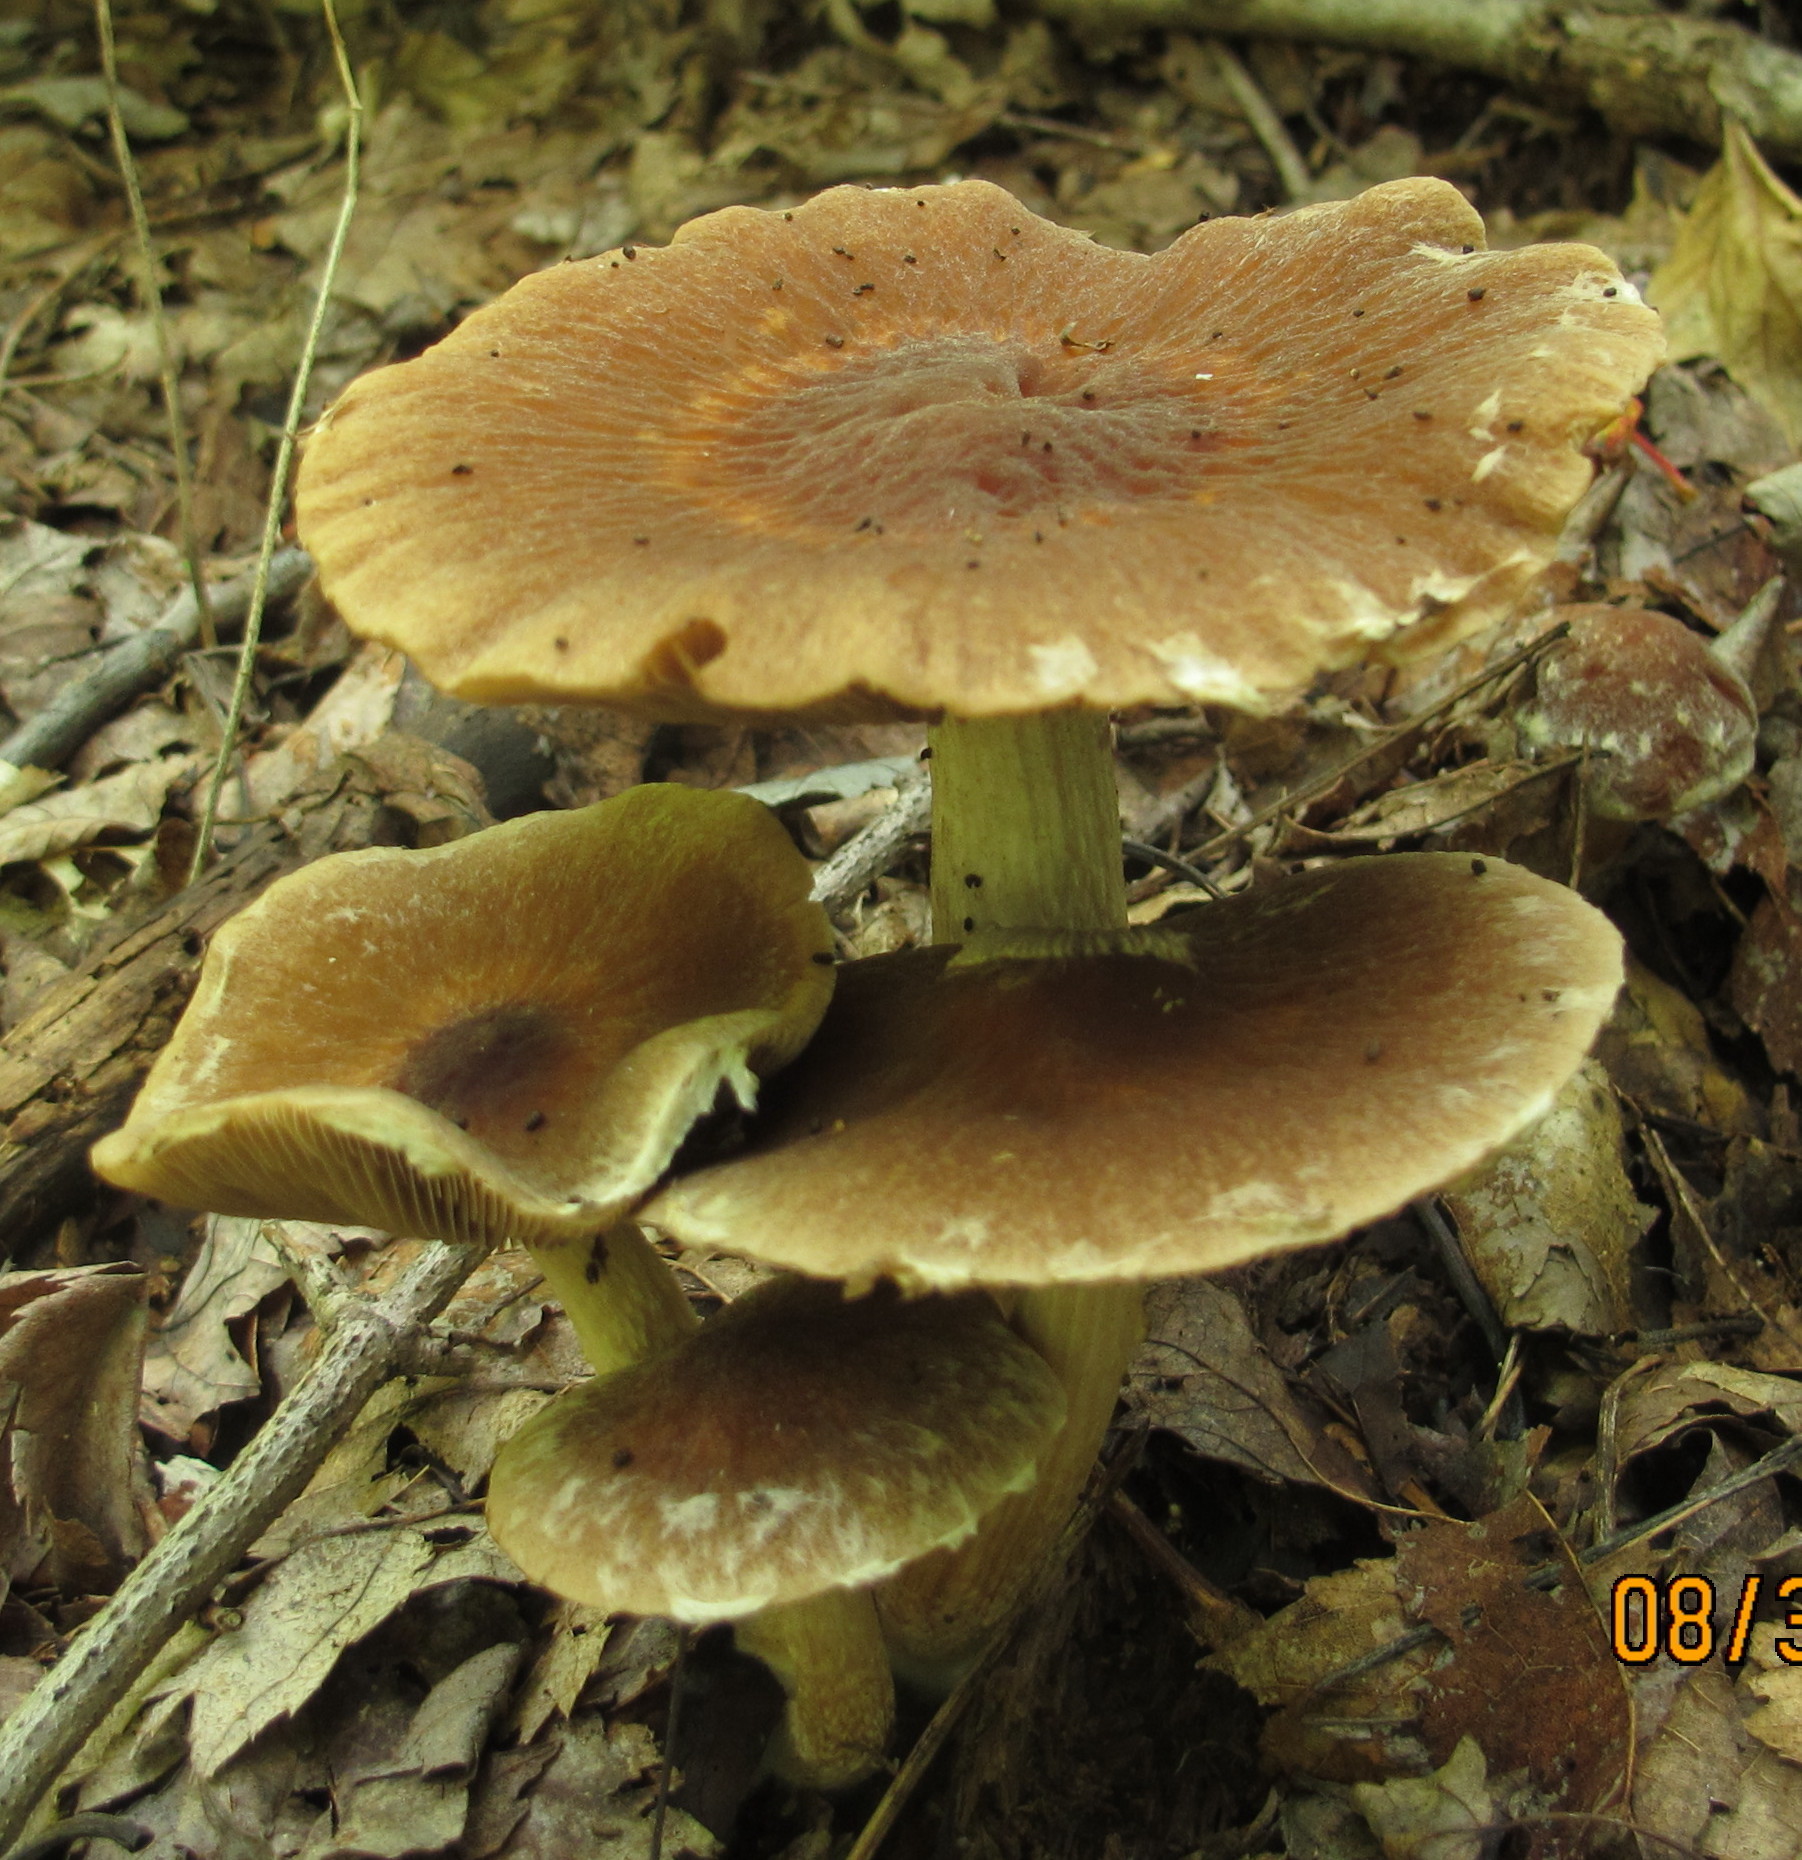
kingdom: Fungi
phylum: Basidiomycota
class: Agaricomycetes
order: Agaricales
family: Psathyrellaceae
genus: Typhrasa
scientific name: Typhrasa gossypina
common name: Wrinkled psathyrella
